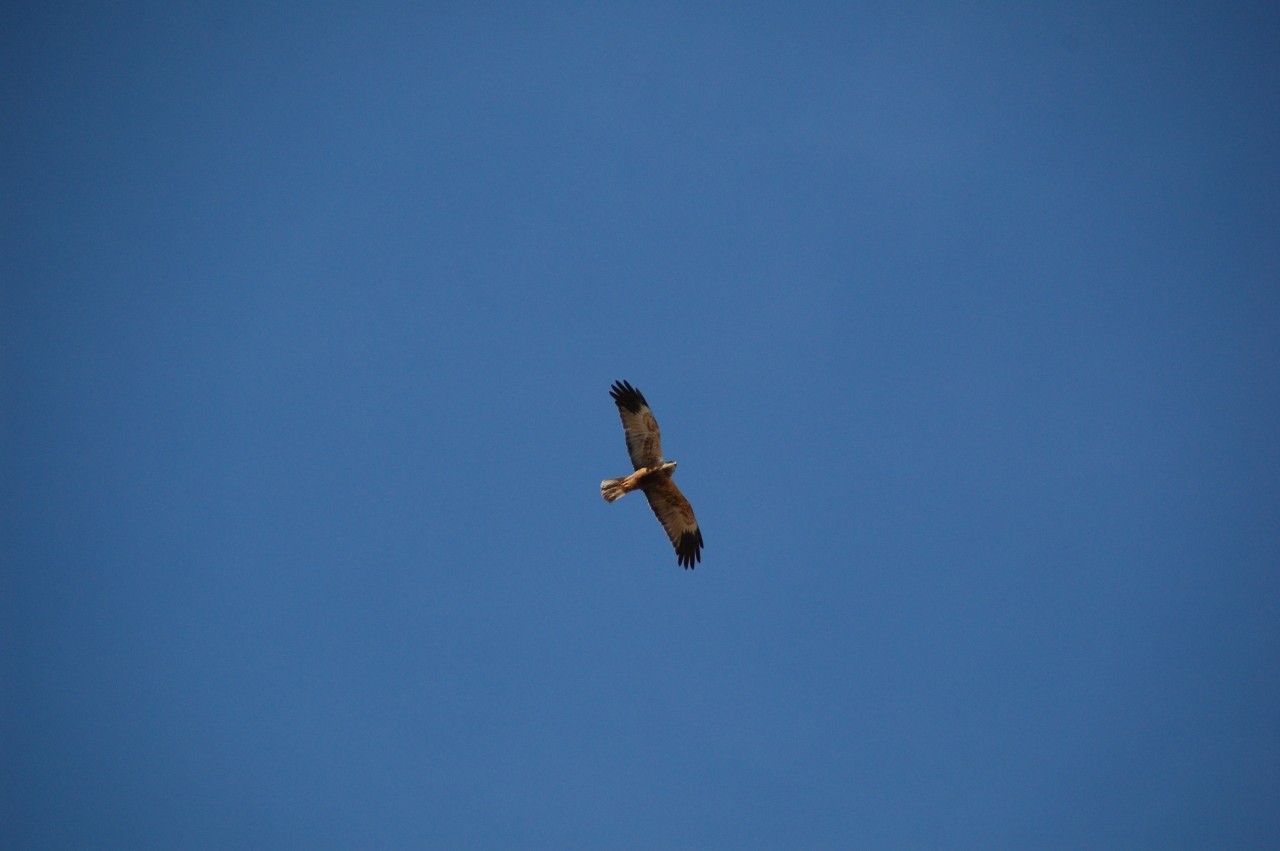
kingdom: Animalia
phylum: Chordata
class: Aves
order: Accipitriformes
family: Accipitridae
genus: Circus
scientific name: Circus aeruginosus
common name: Western marsh harrier
